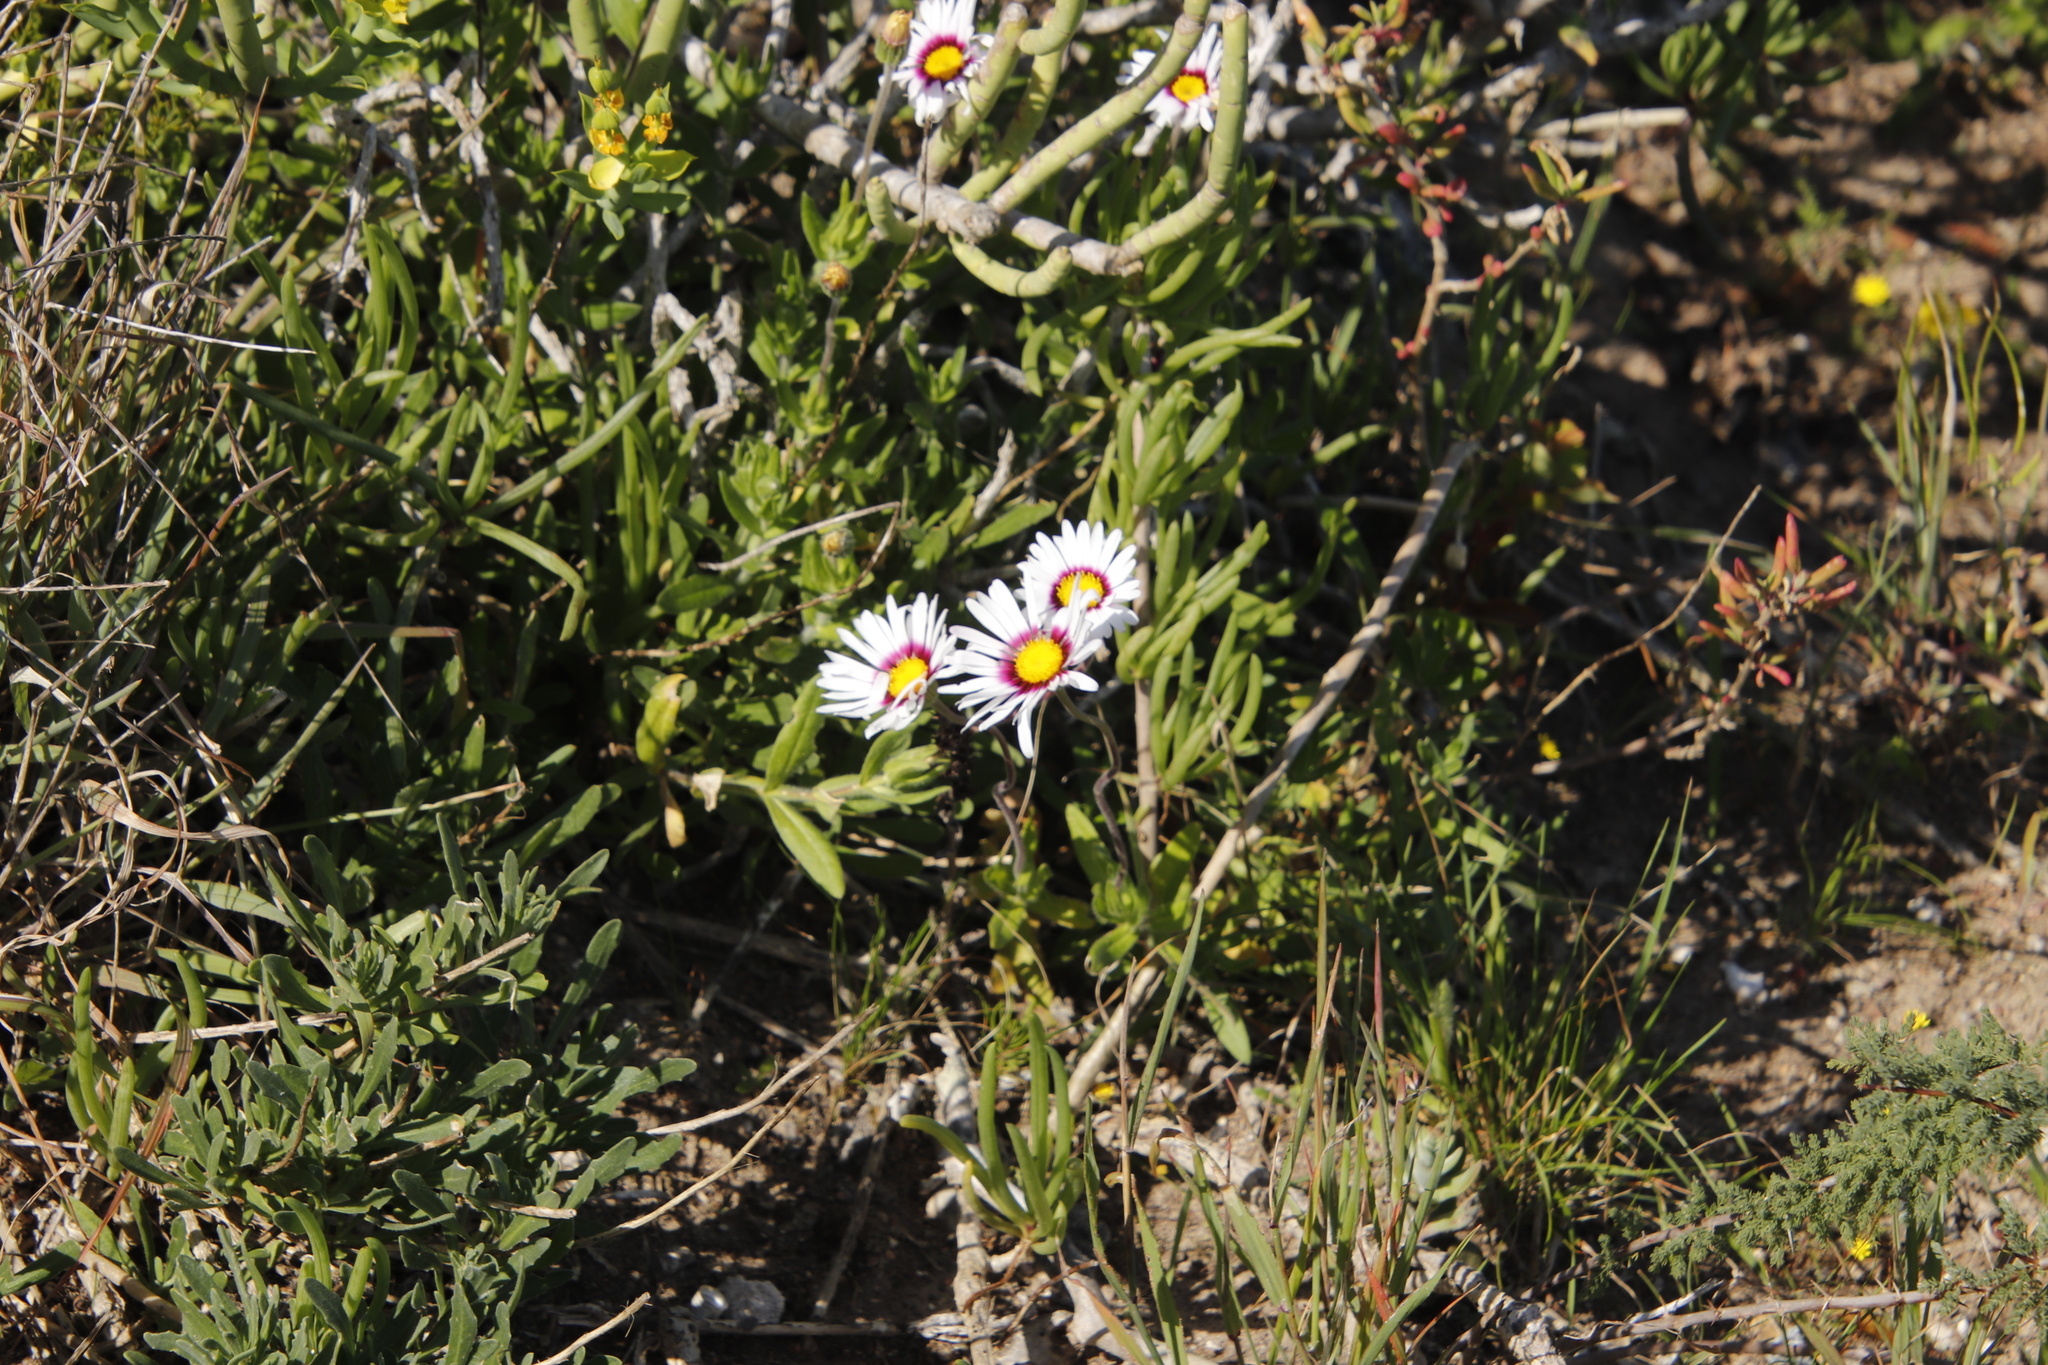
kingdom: Plantae
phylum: Tracheophyta
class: Magnoliopsida
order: Asterales
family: Asteraceae
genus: Felicia
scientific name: Felicia elongata
